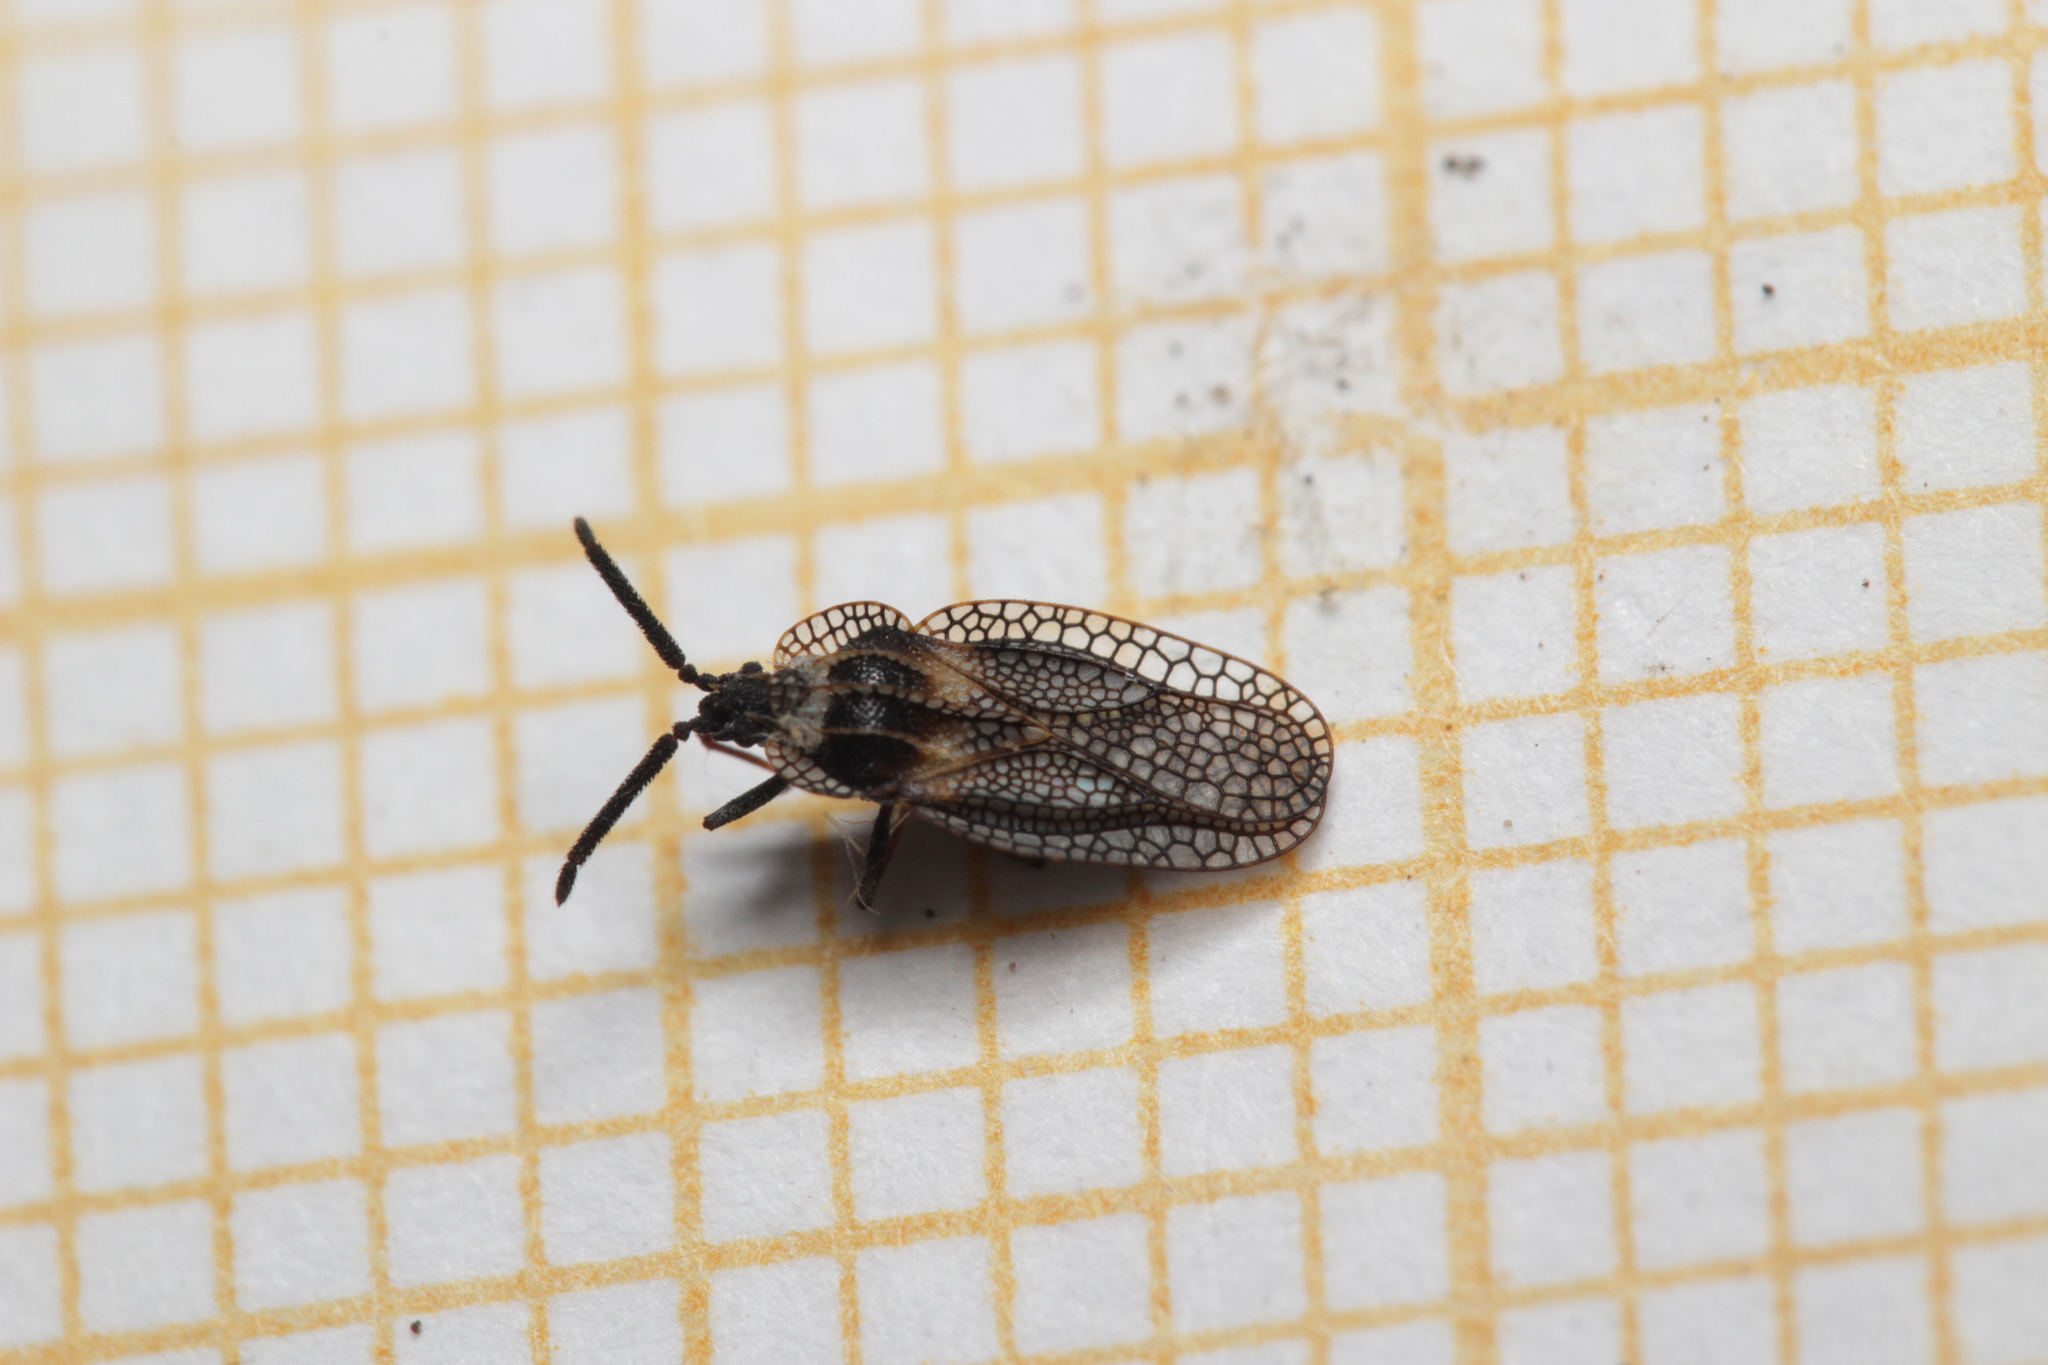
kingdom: Animalia
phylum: Arthropoda
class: Insecta
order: Hemiptera
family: Tingidae
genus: Dictyonota
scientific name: Dictyonota strichnocera
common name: Gorse lacebug
